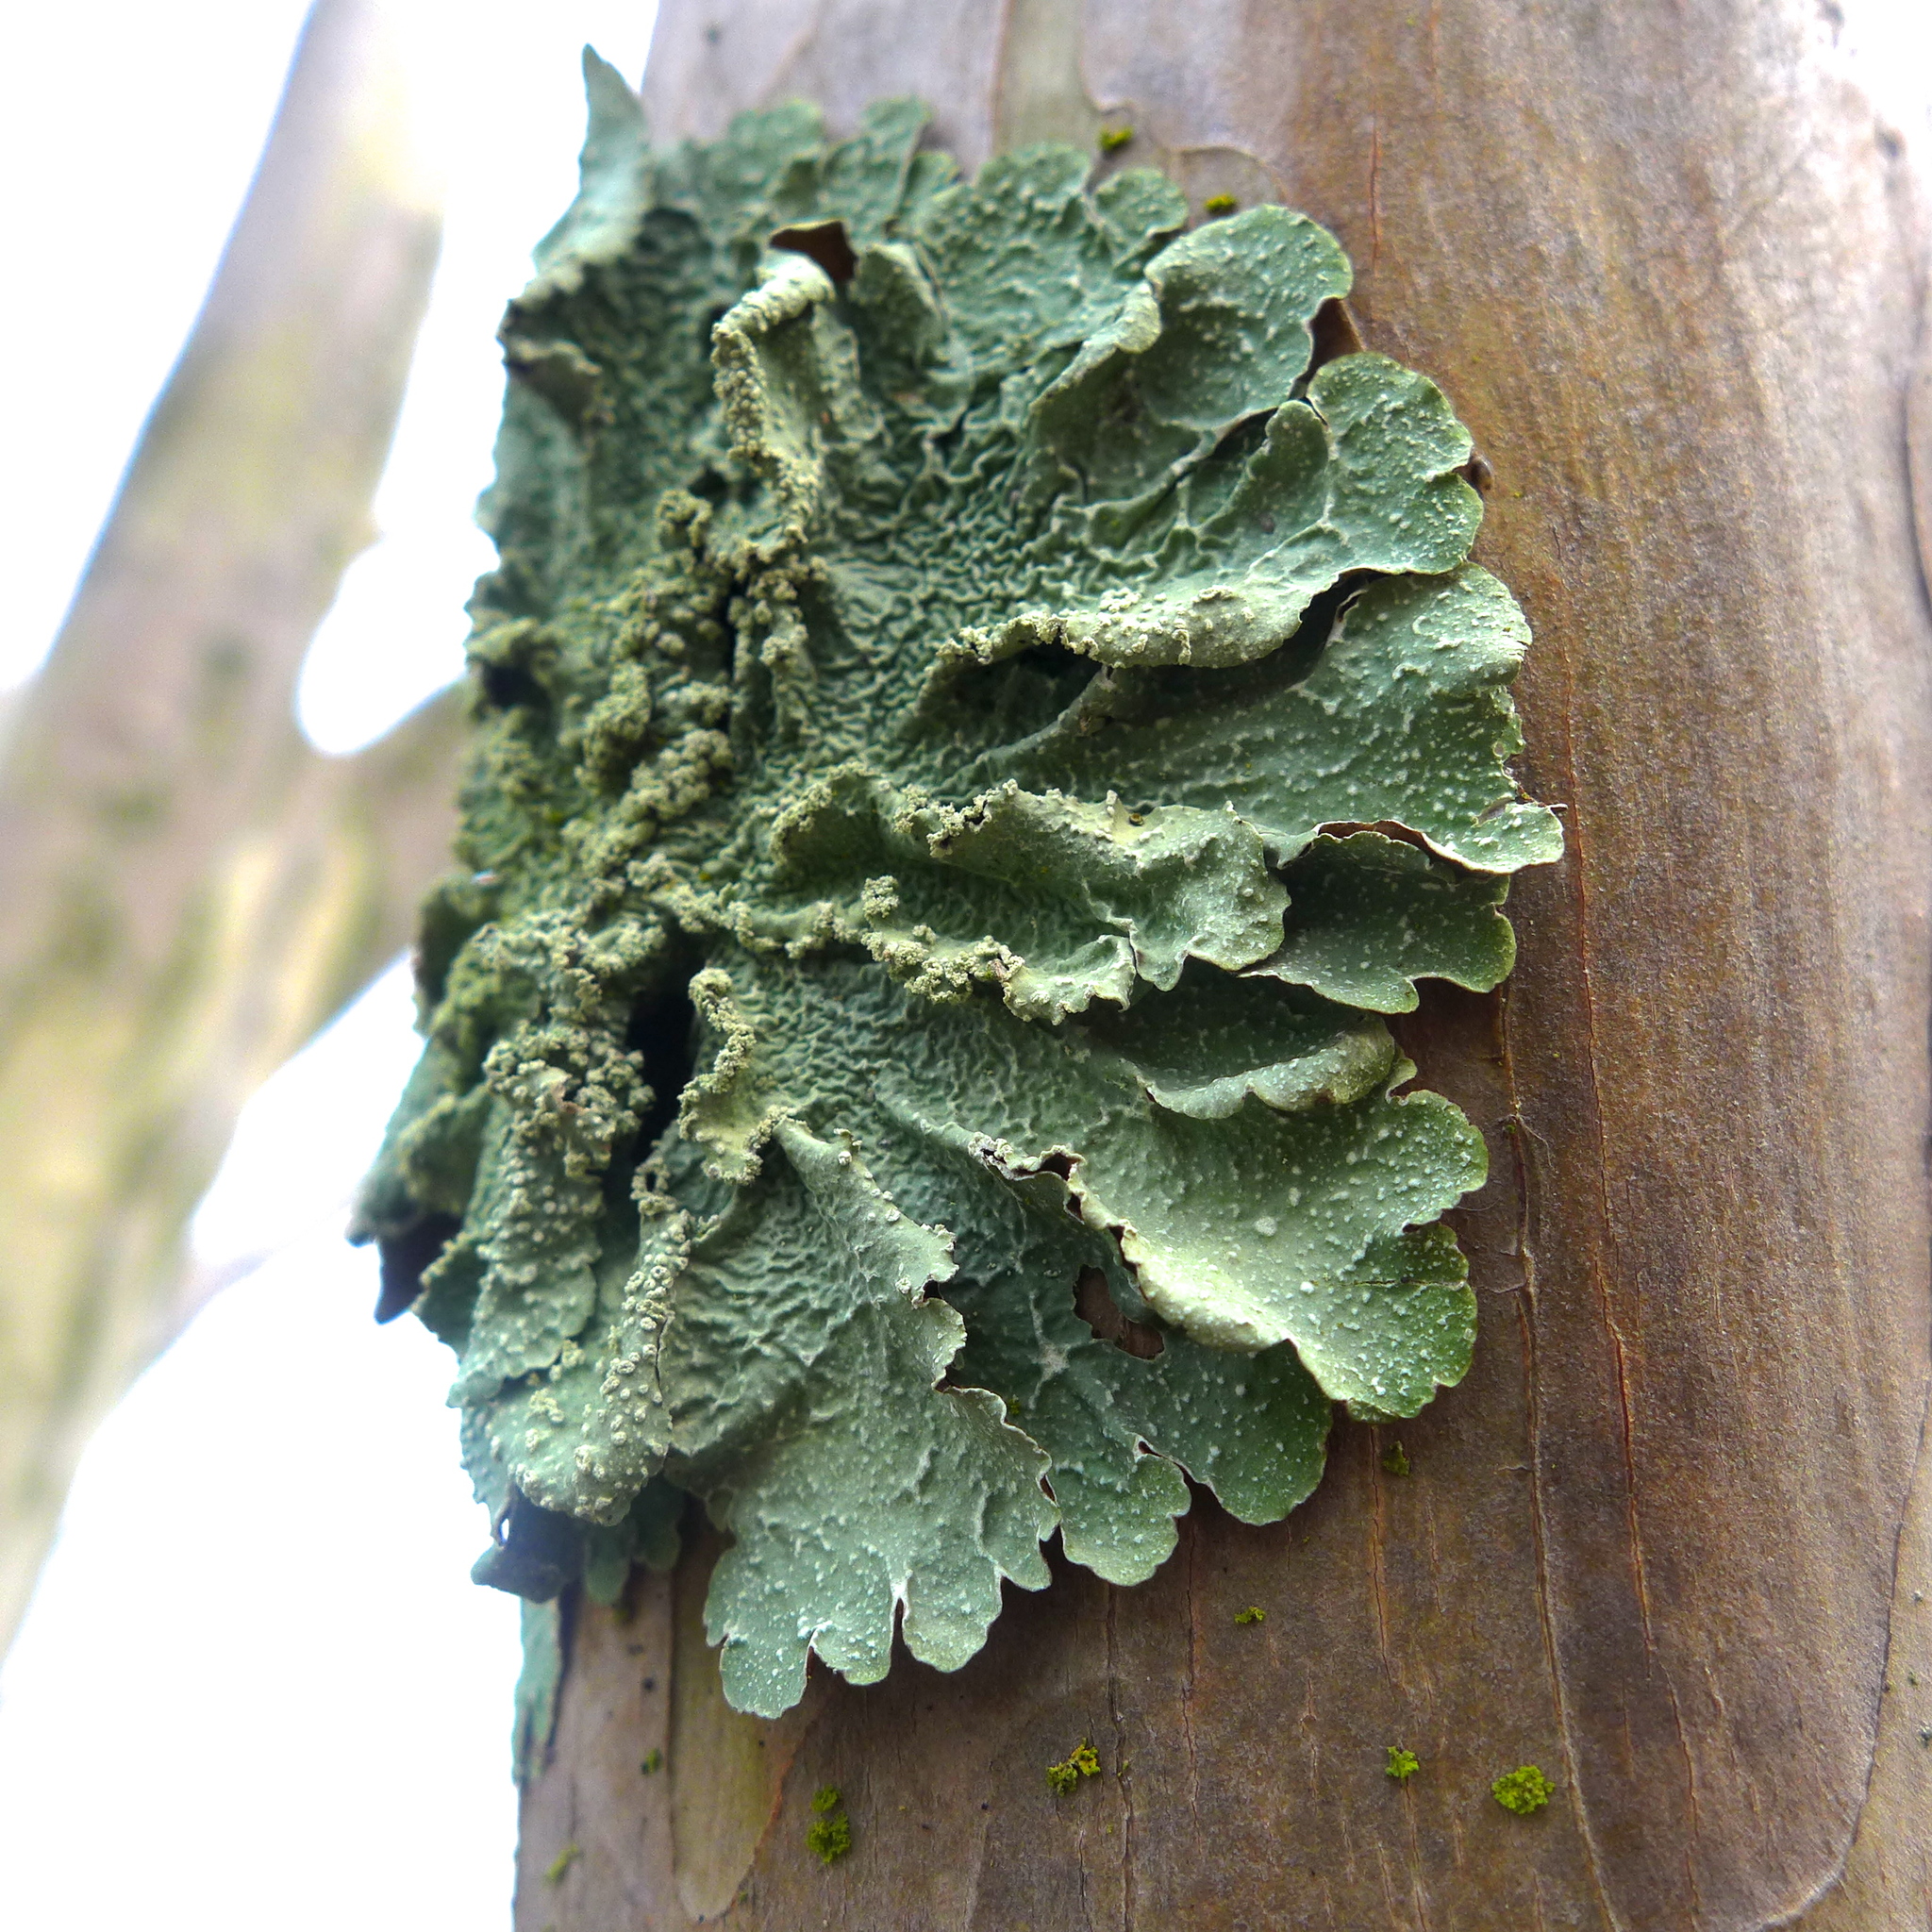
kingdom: Fungi
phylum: Ascomycota
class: Lecanoromycetes
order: Lecanorales
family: Parmeliaceae
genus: Flavopunctelia
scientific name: Flavopunctelia flaventior
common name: Speckled greenshield
